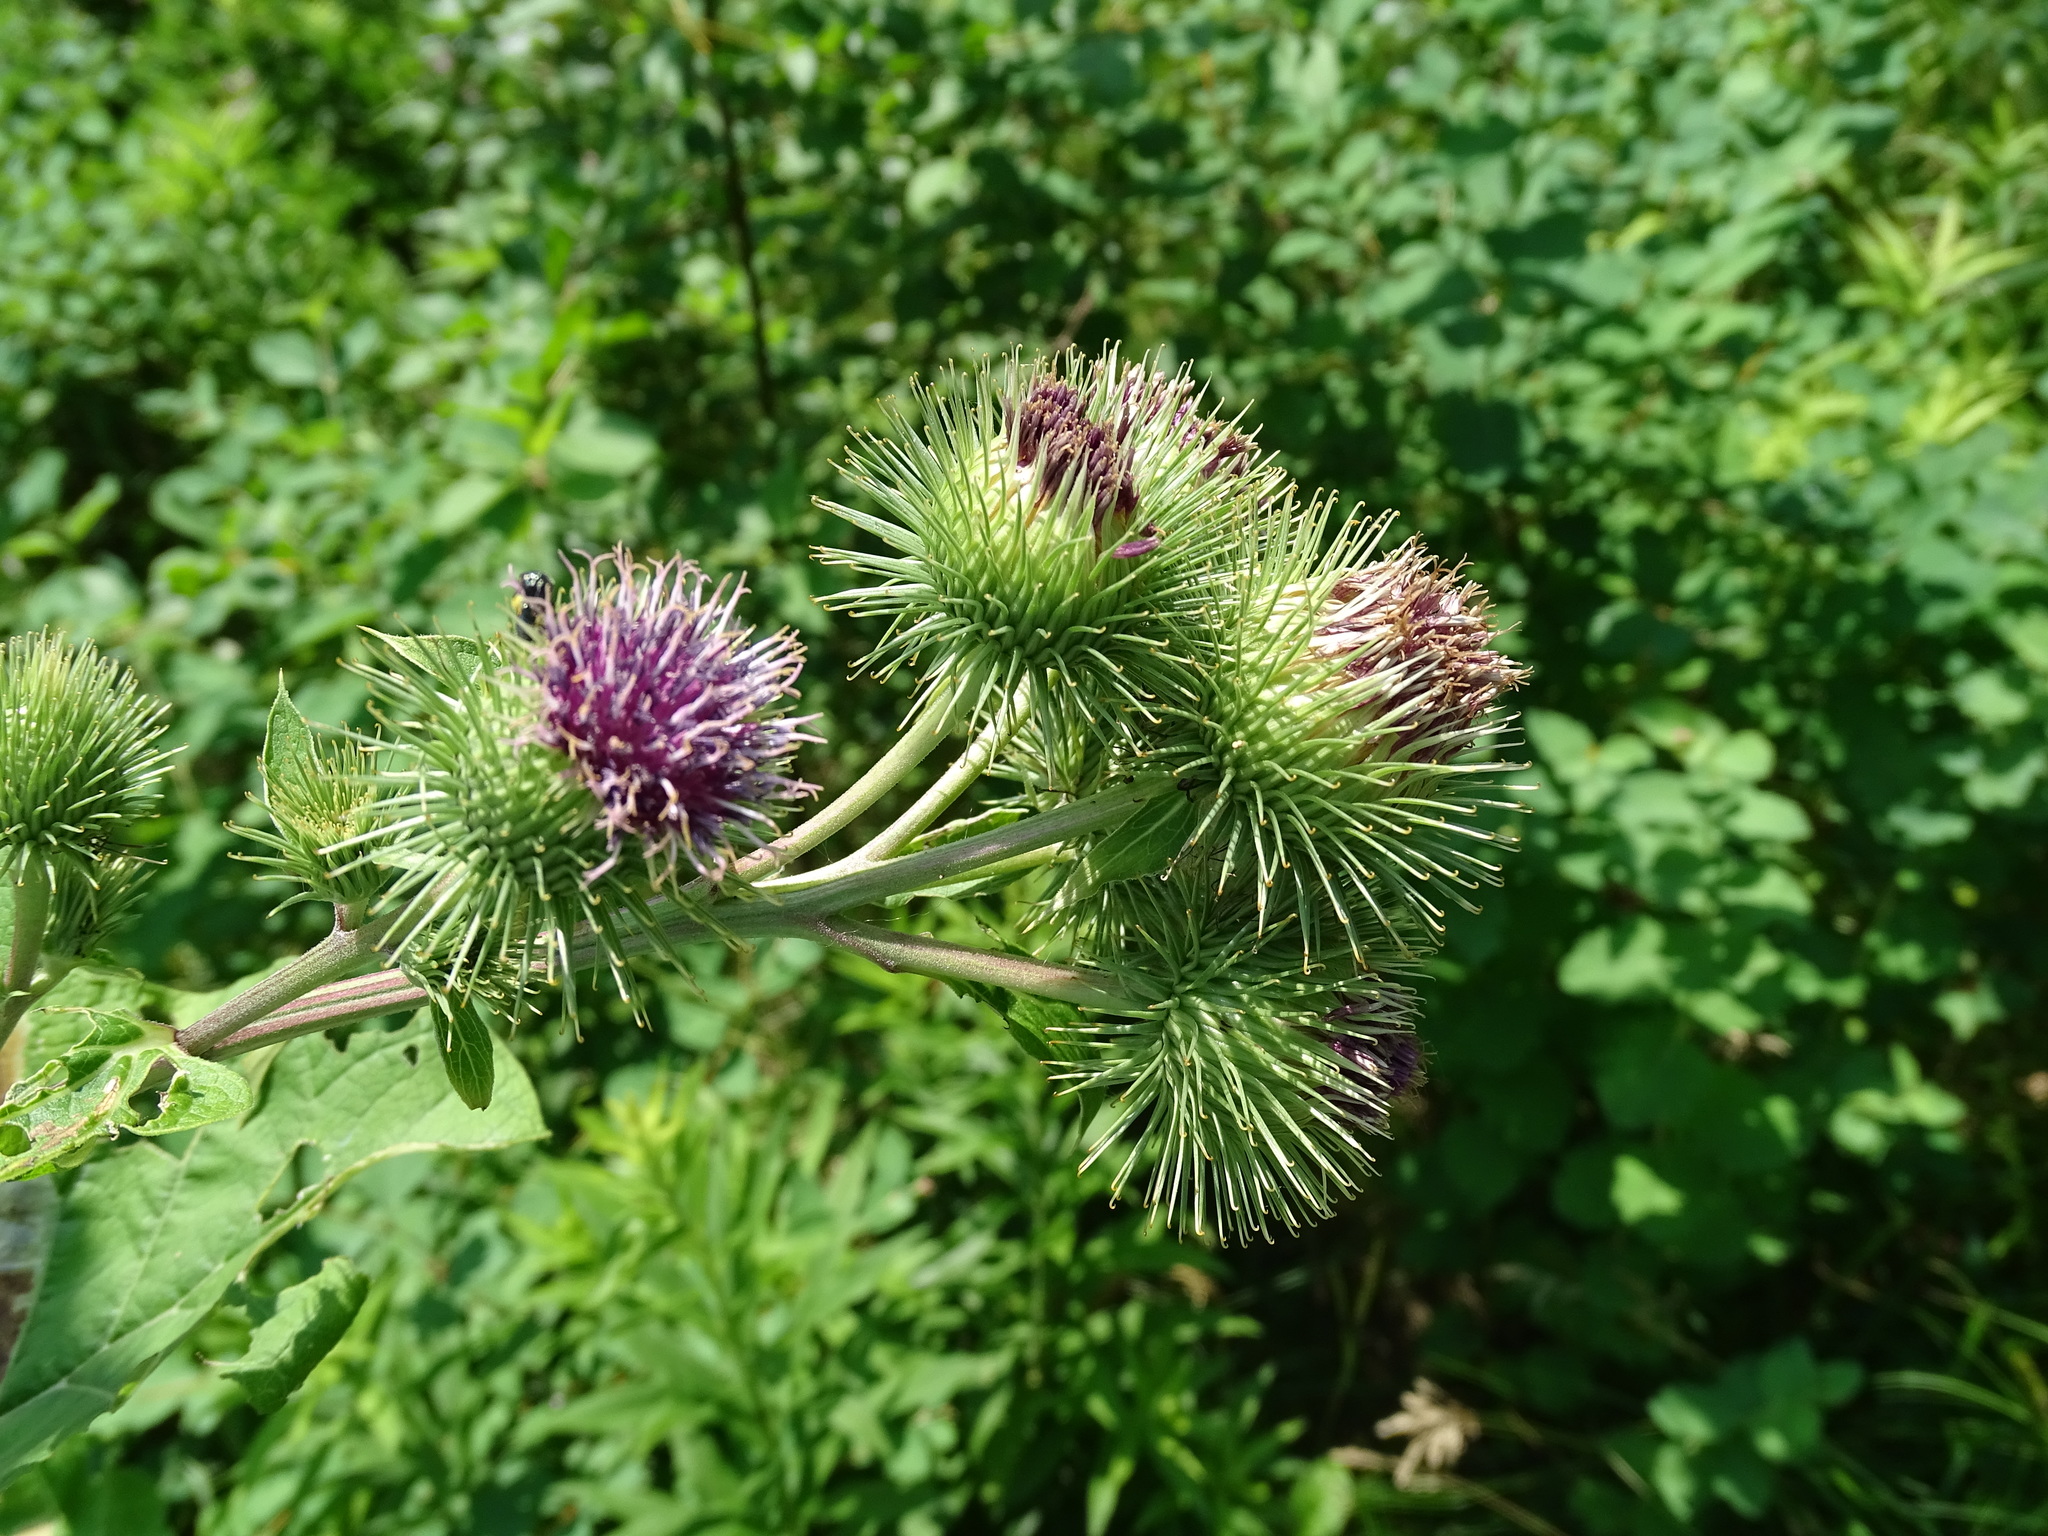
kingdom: Plantae
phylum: Tracheophyta
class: Magnoliopsida
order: Asterales
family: Asteraceae
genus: Arctium
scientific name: Arctium lappa
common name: Greater burdock
